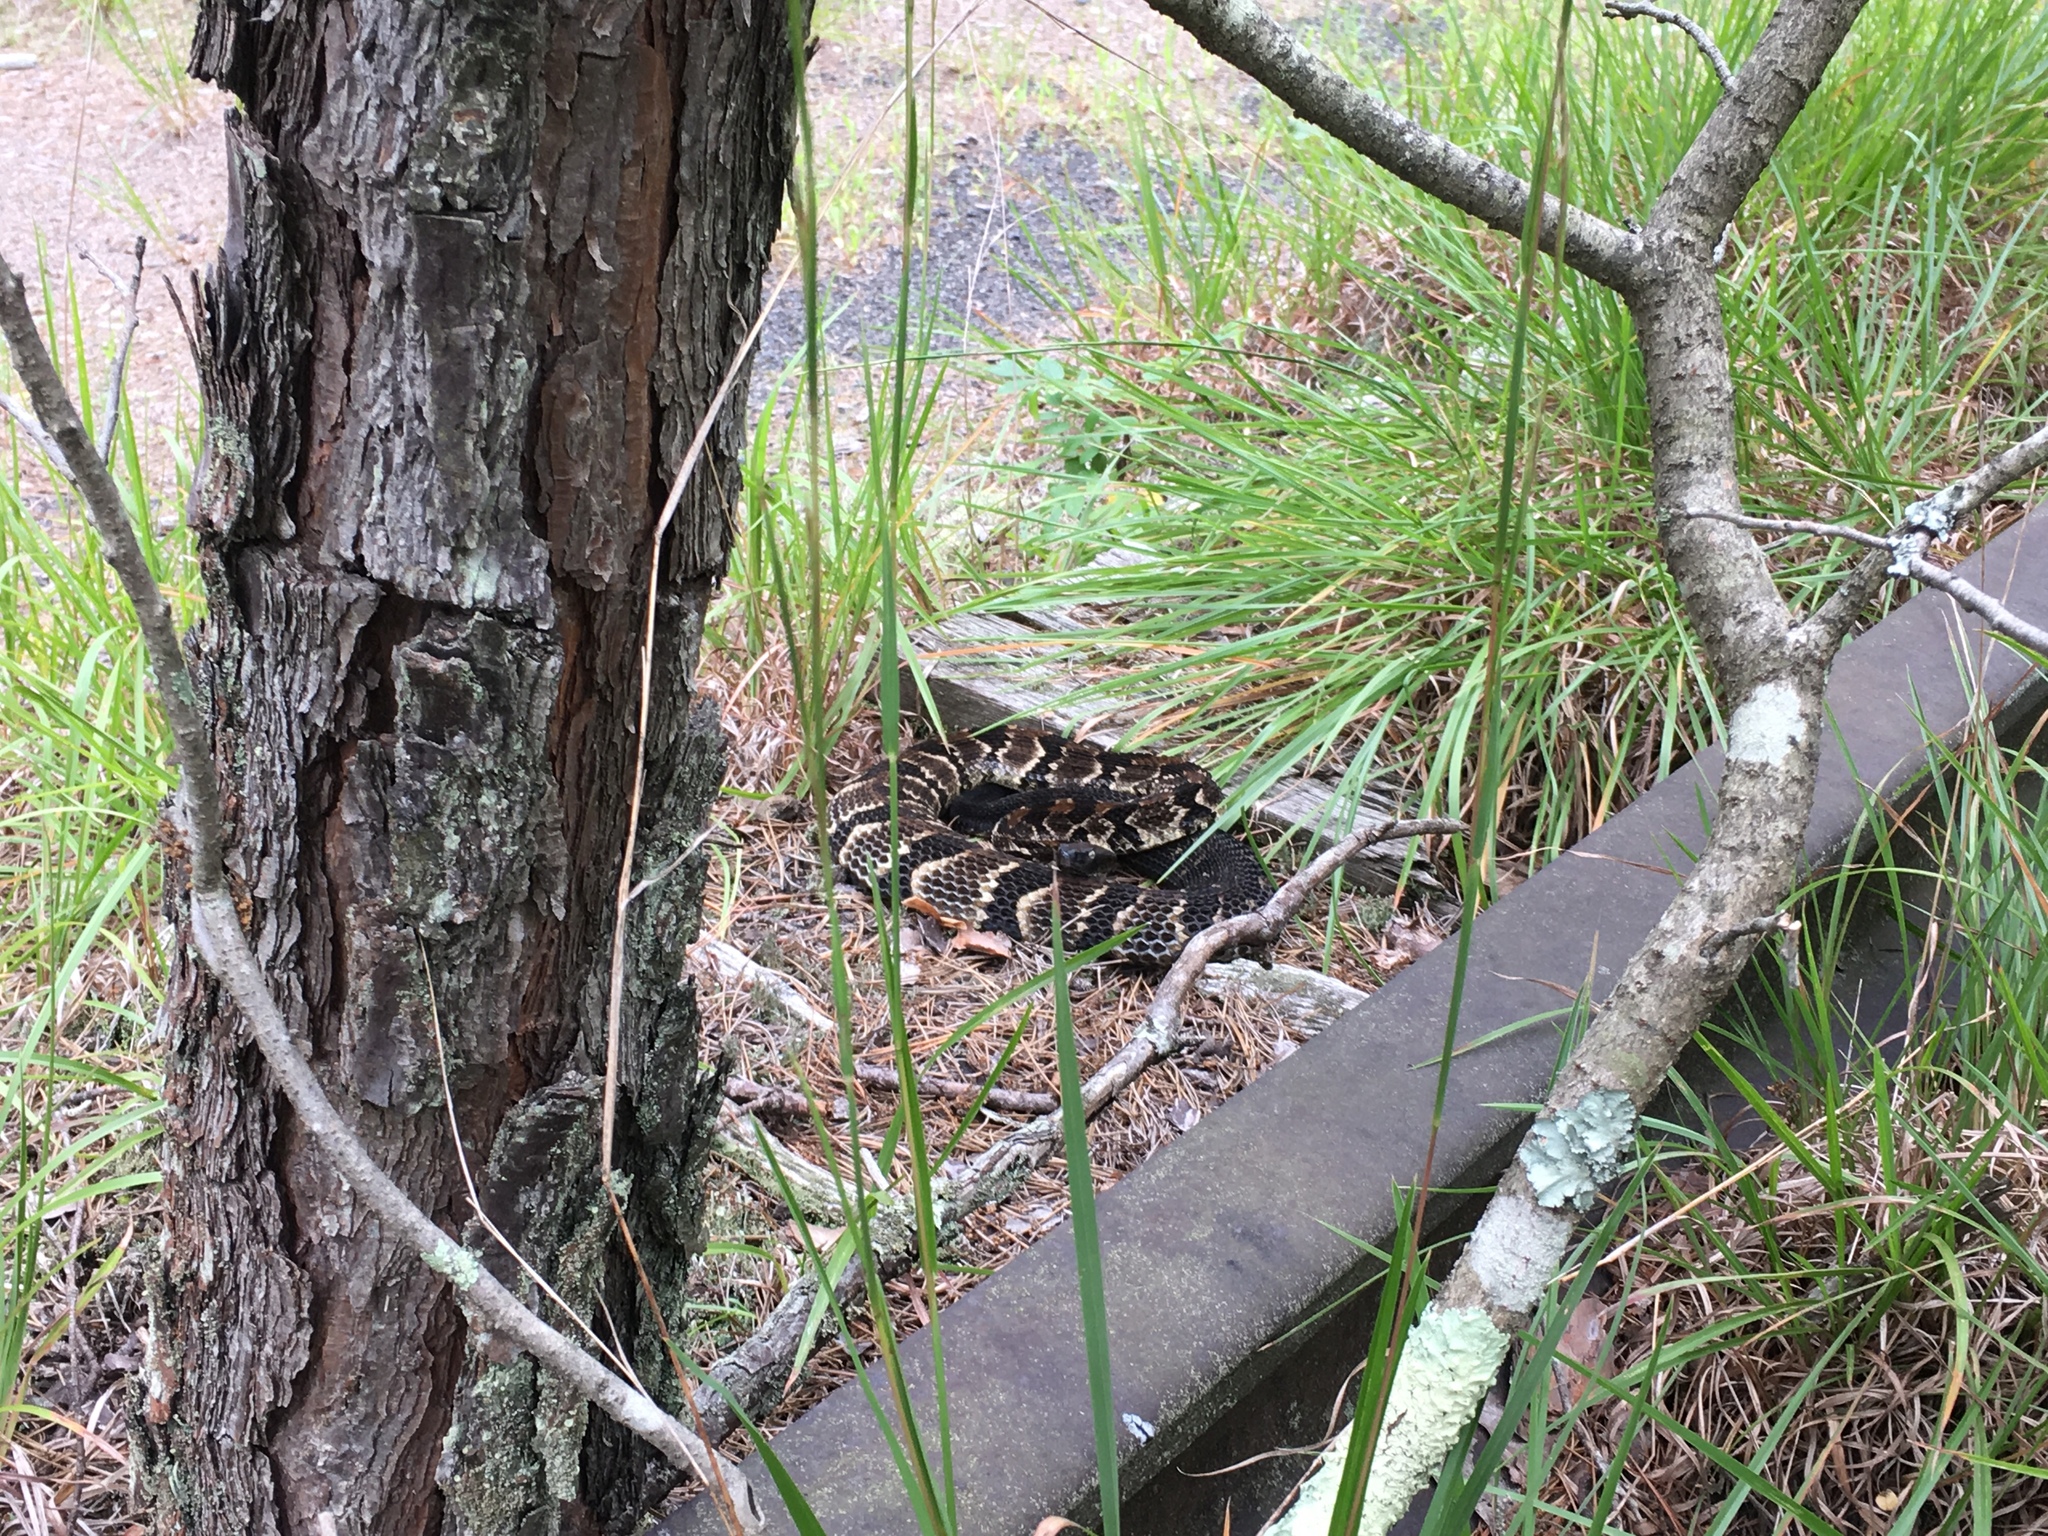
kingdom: Animalia
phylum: Chordata
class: Squamata
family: Viperidae
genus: Crotalus
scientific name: Crotalus horridus
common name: Timber rattlesnake
